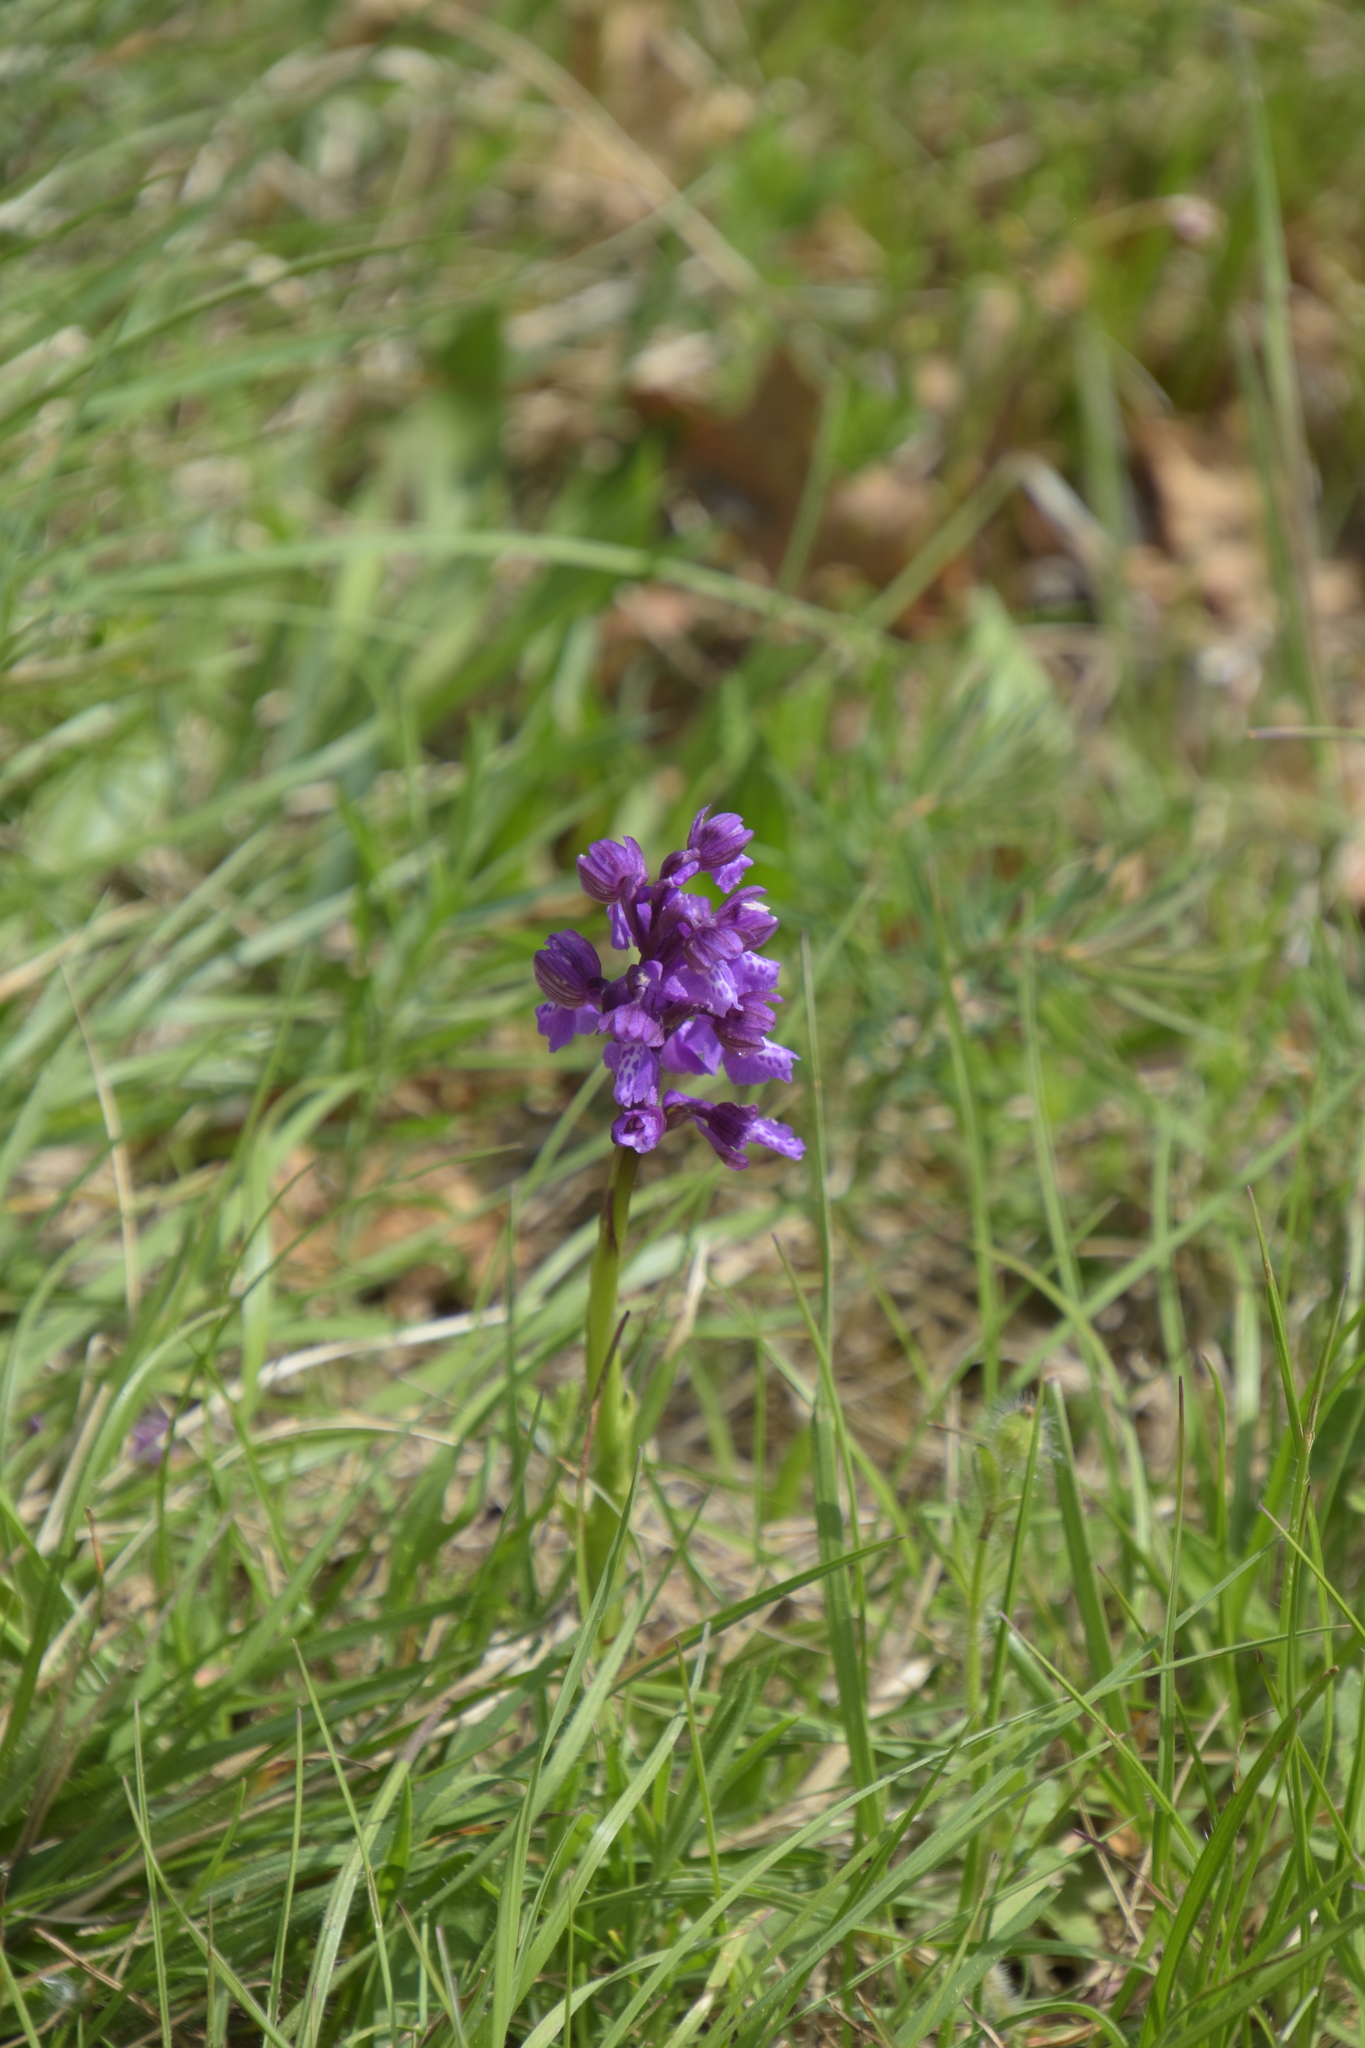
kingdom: Plantae
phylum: Tracheophyta
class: Liliopsida
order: Asparagales
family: Orchidaceae
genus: Anacamptis
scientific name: Anacamptis morio
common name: Green-winged orchid
